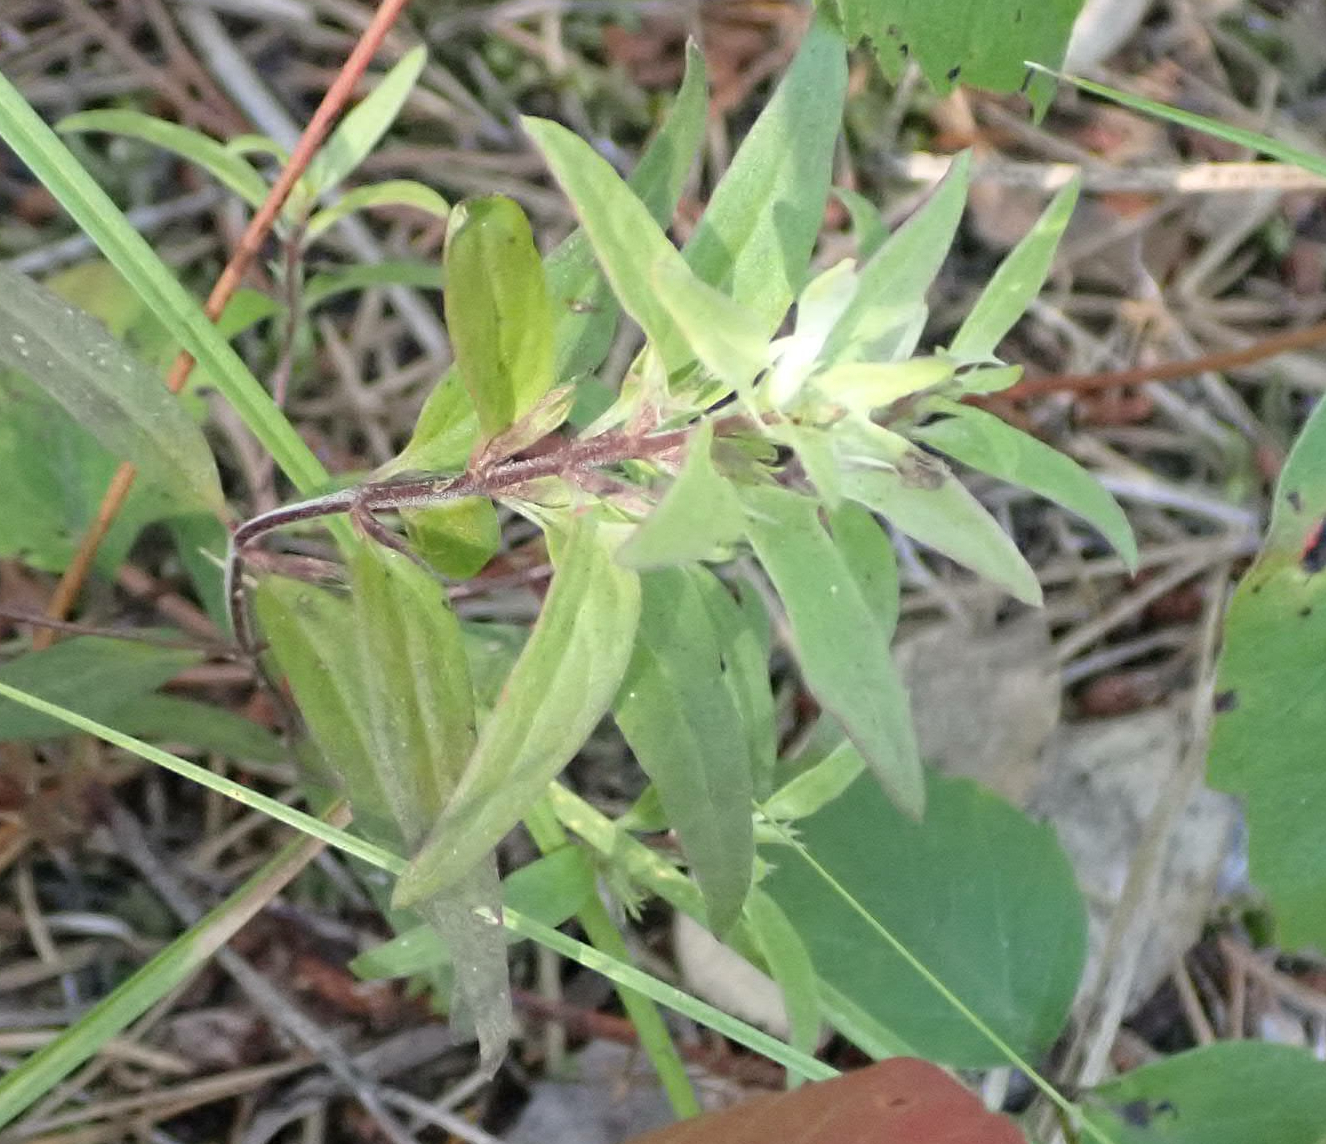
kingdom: Plantae
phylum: Tracheophyta
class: Magnoliopsida
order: Lamiales
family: Orobanchaceae
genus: Melampyrum
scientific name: Melampyrum lineare
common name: American cow-wheat
